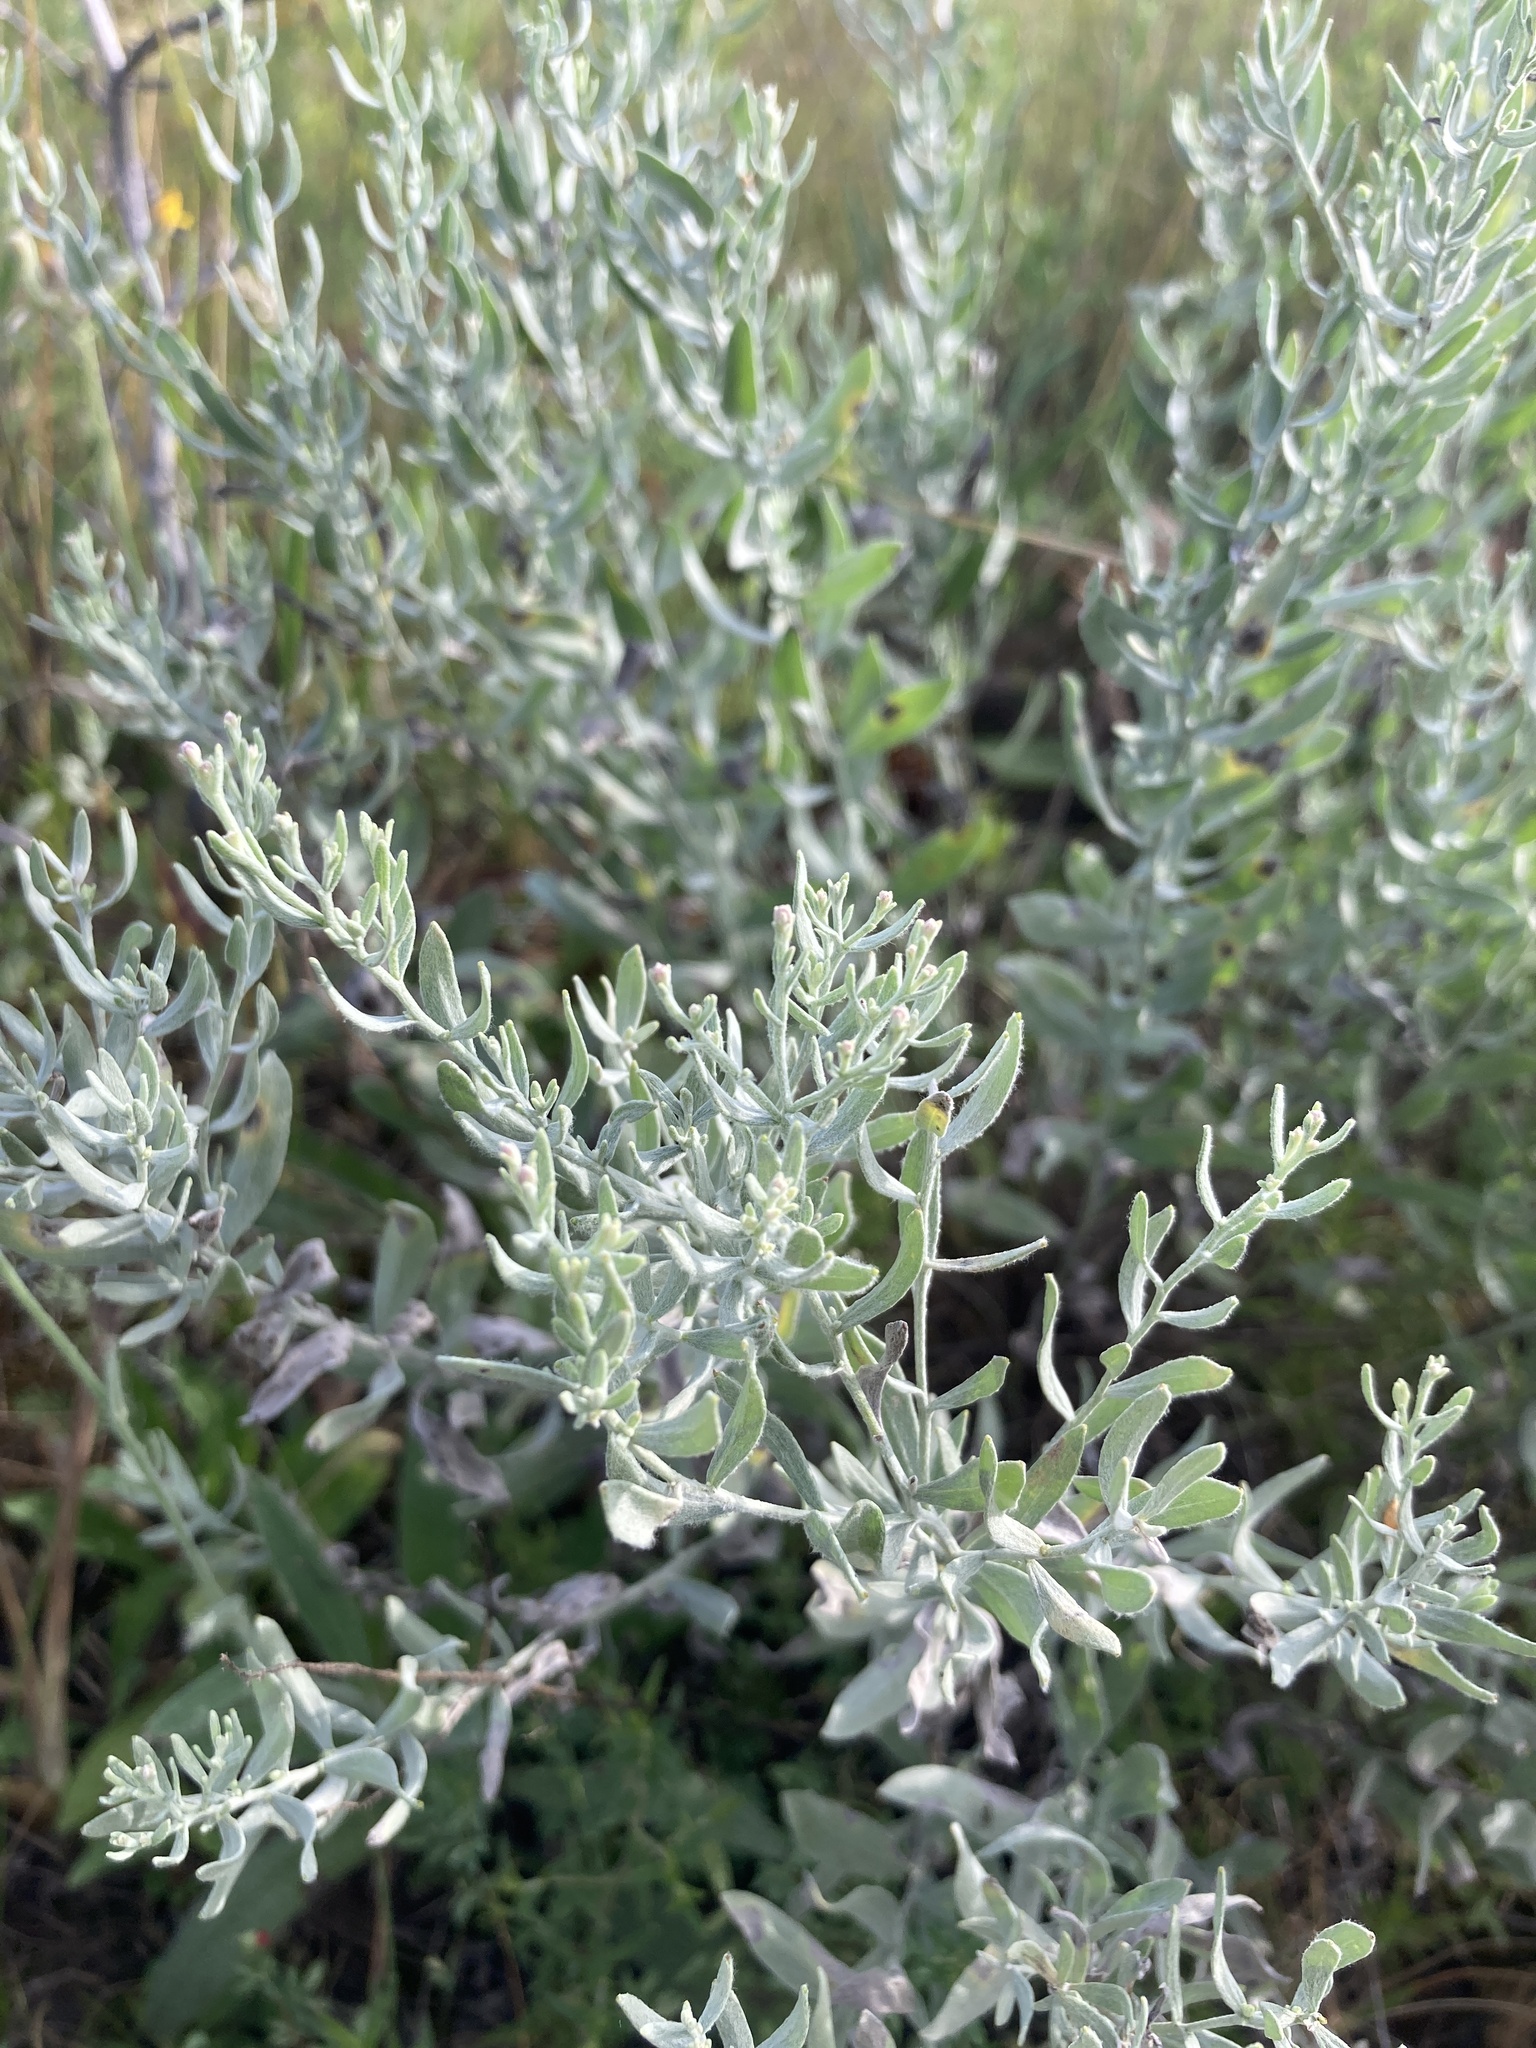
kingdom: Plantae
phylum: Tracheophyta
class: Magnoliopsida
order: Asterales
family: Asteraceae
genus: Galatella
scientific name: Galatella villosa
